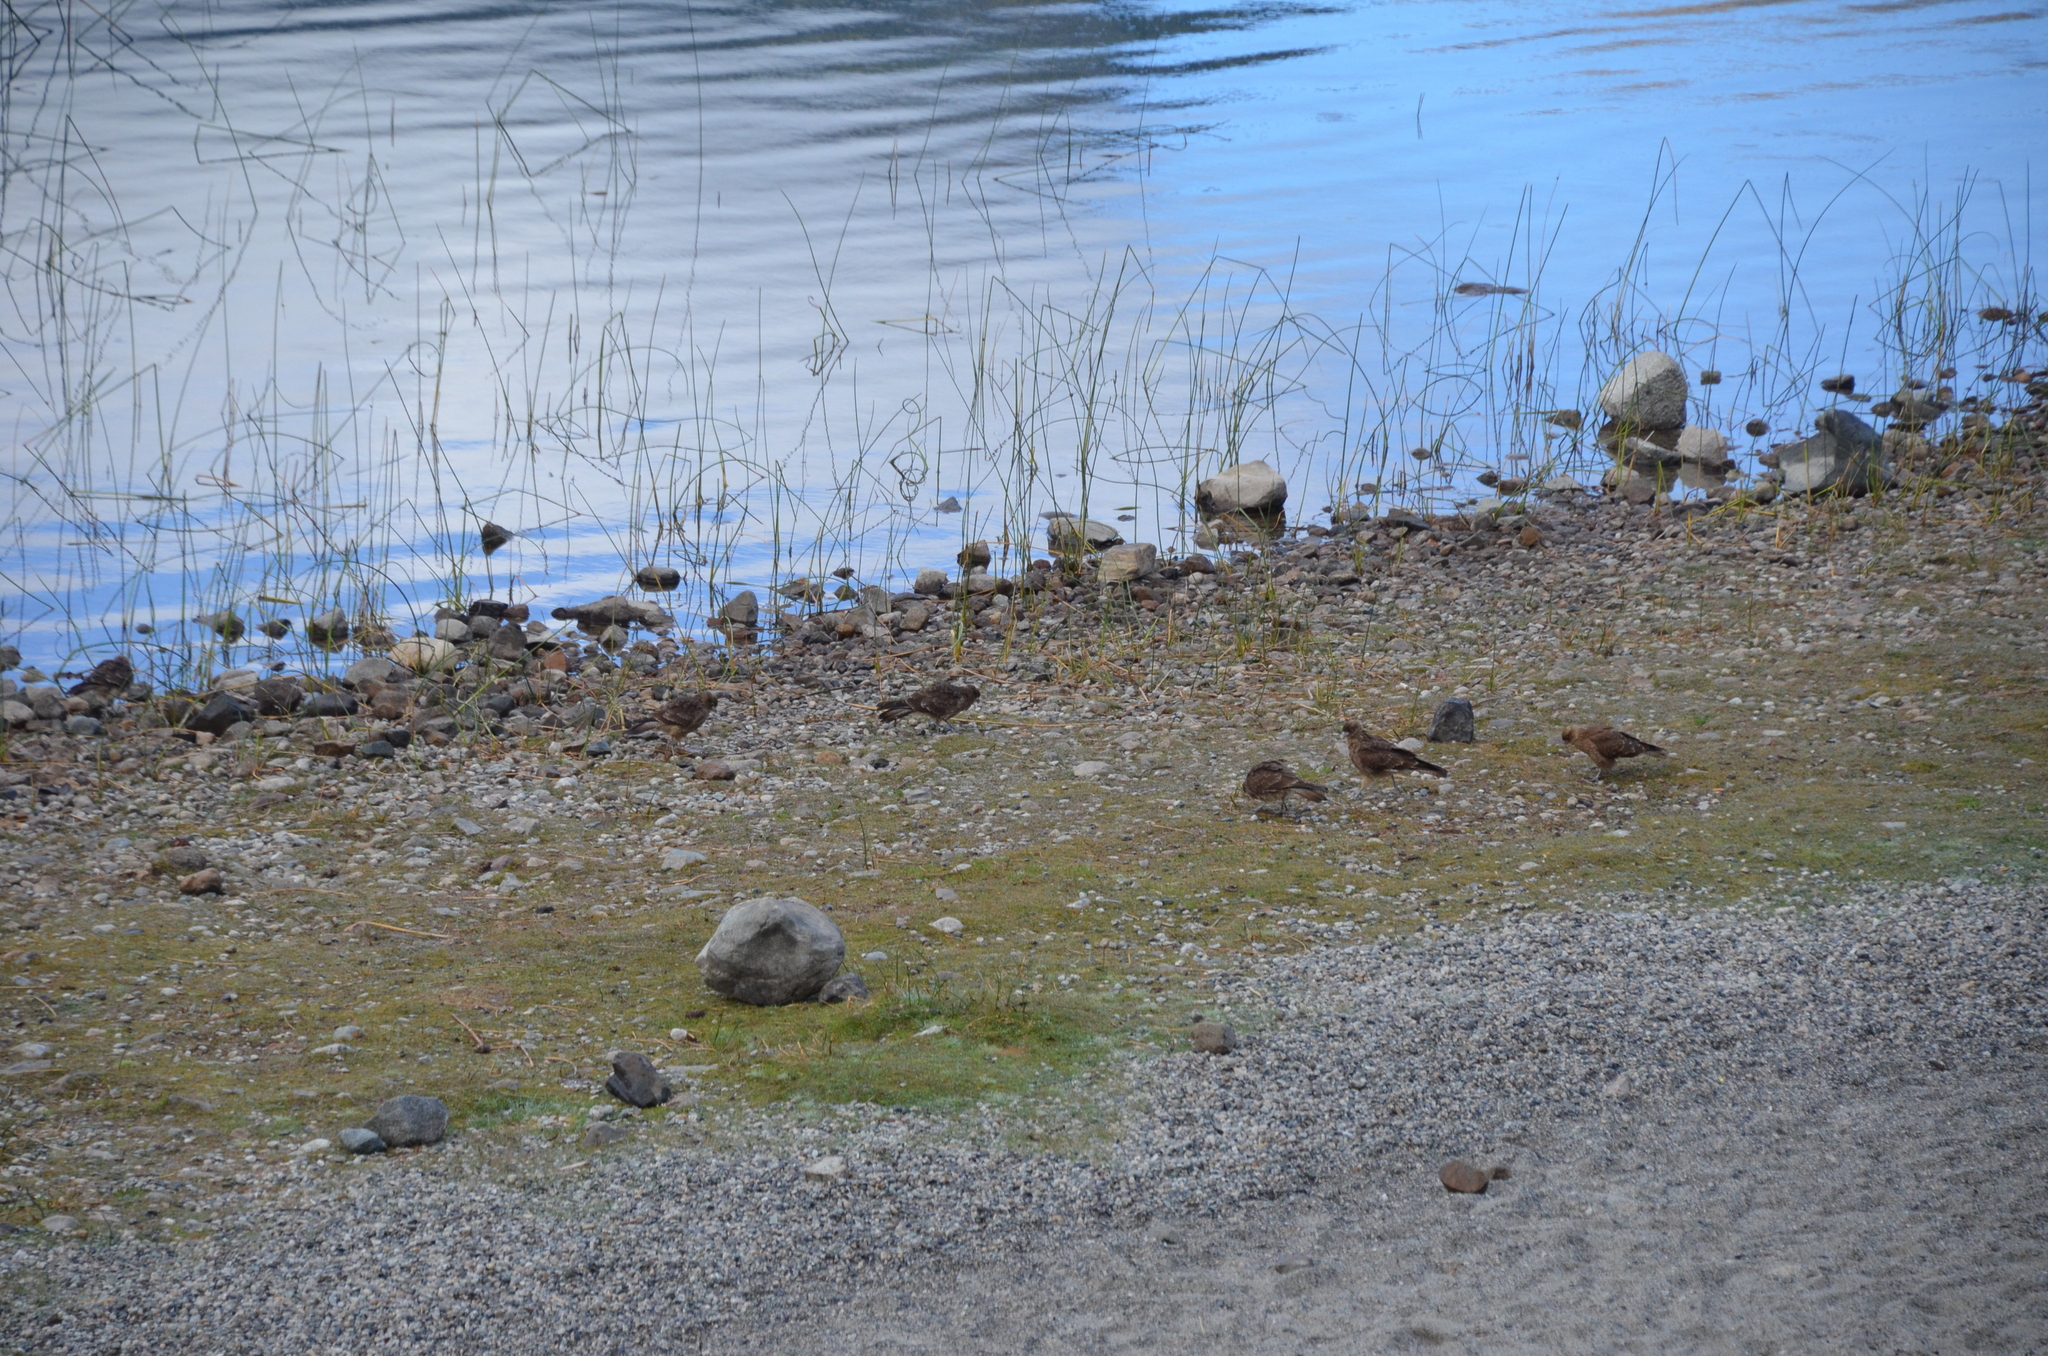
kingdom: Animalia
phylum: Chordata
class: Aves
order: Falconiformes
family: Falconidae
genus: Daptrius
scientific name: Daptrius
